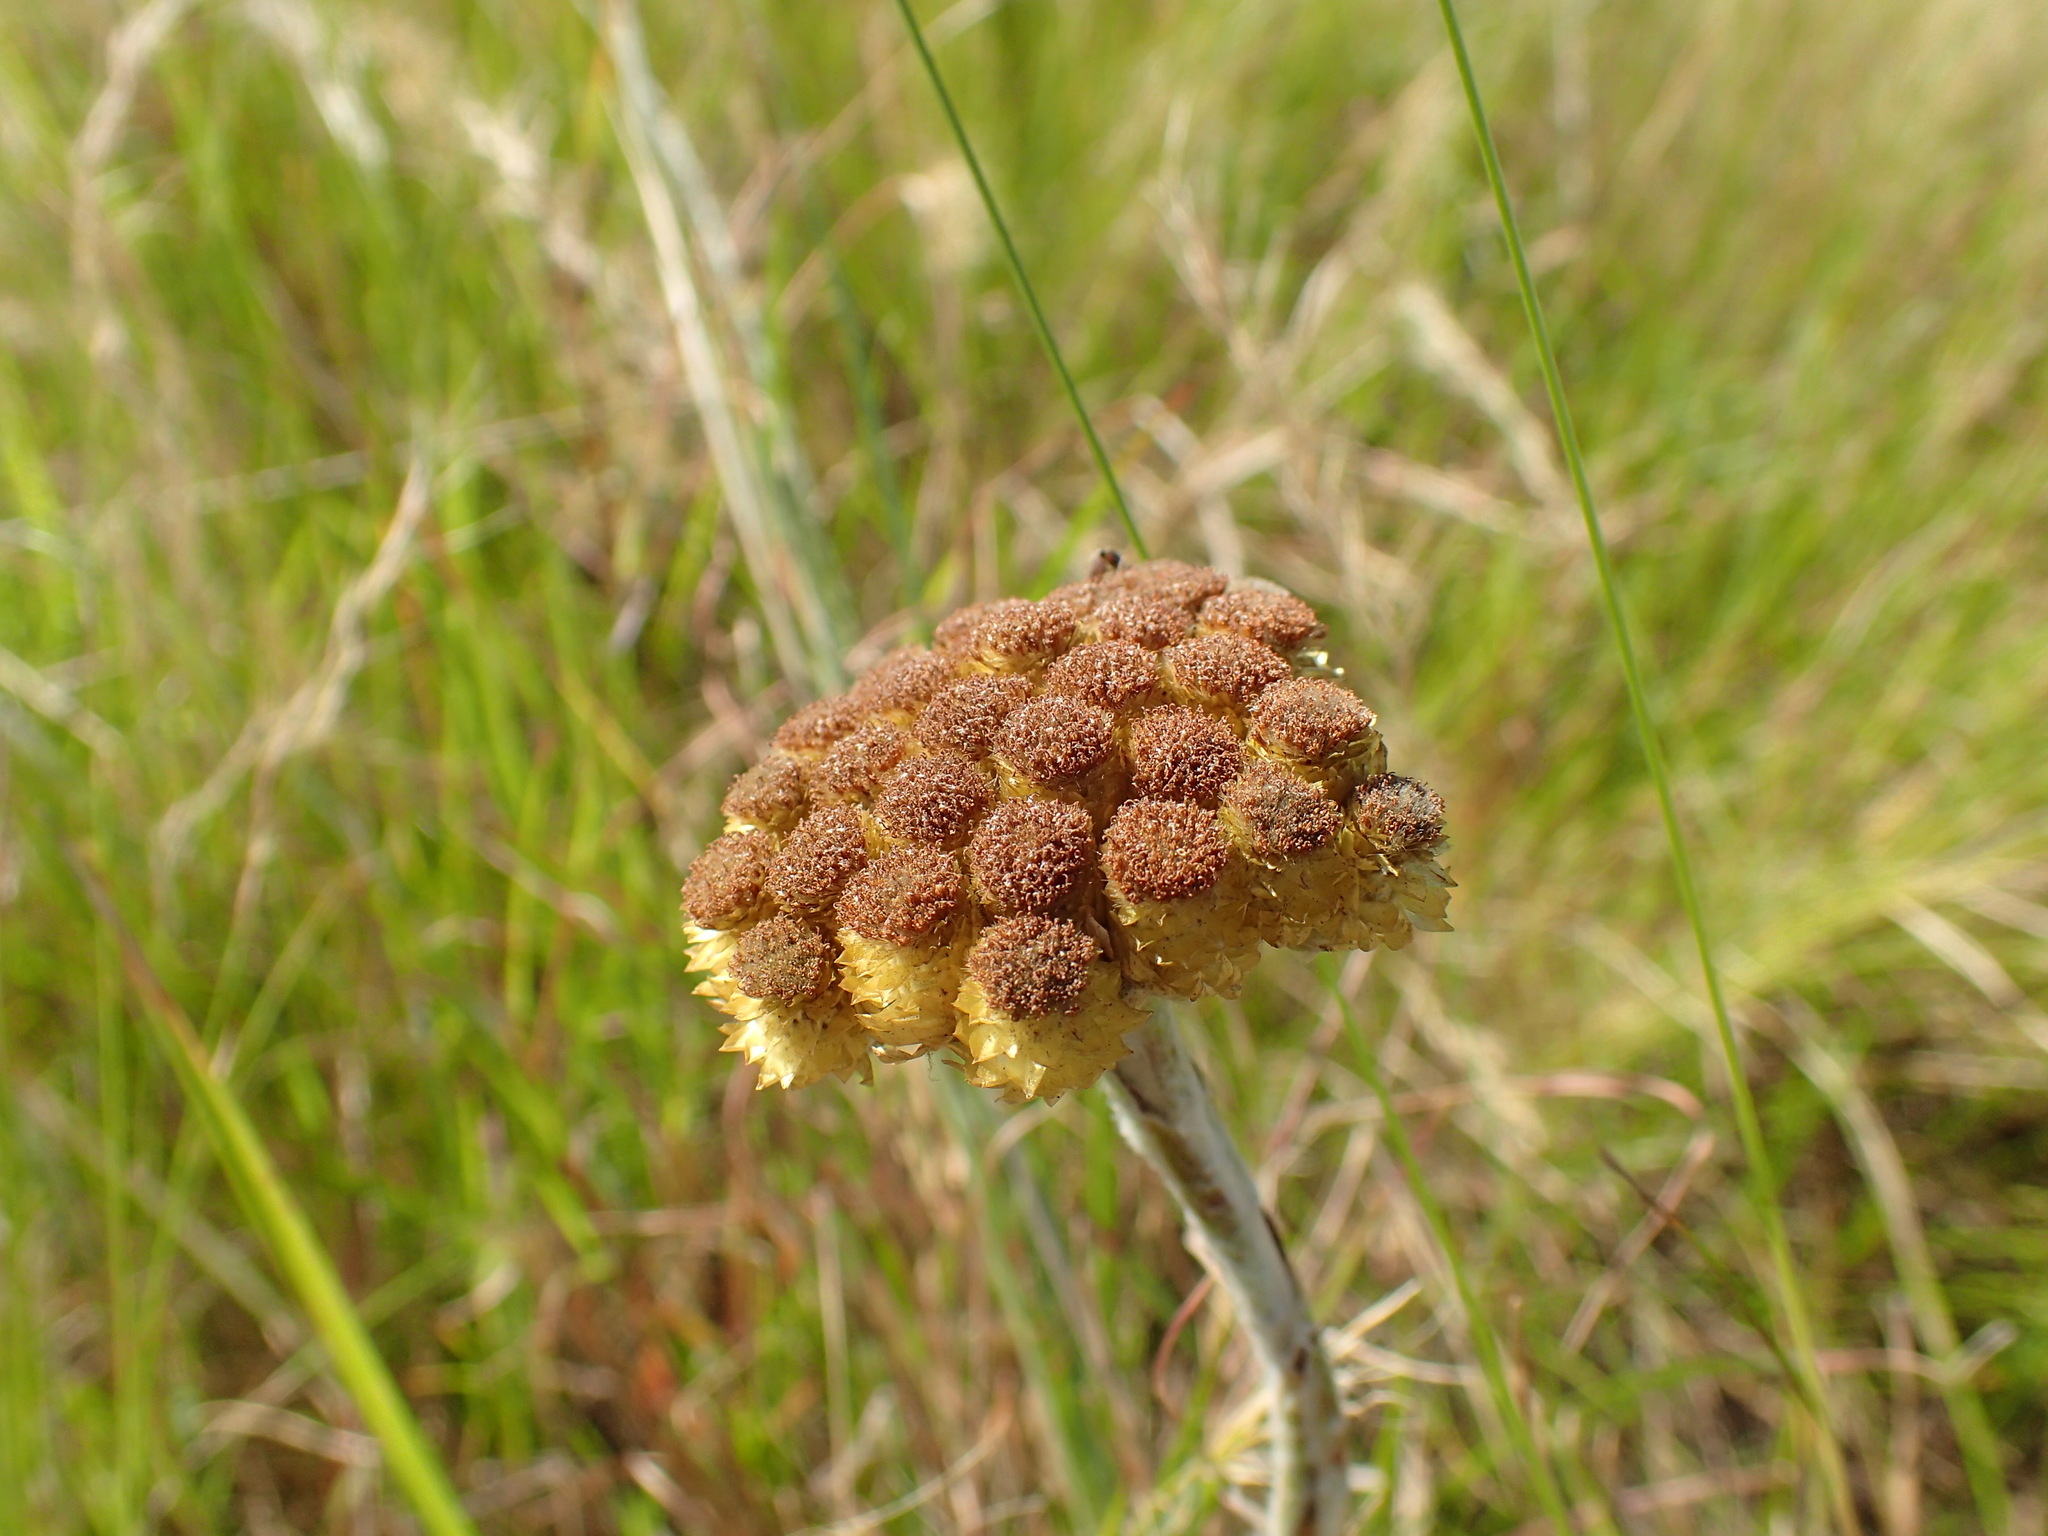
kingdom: Plantae
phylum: Tracheophyta
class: Magnoliopsida
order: Asterales
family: Asteraceae
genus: Helichrysum
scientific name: Helichrysum auriceps
